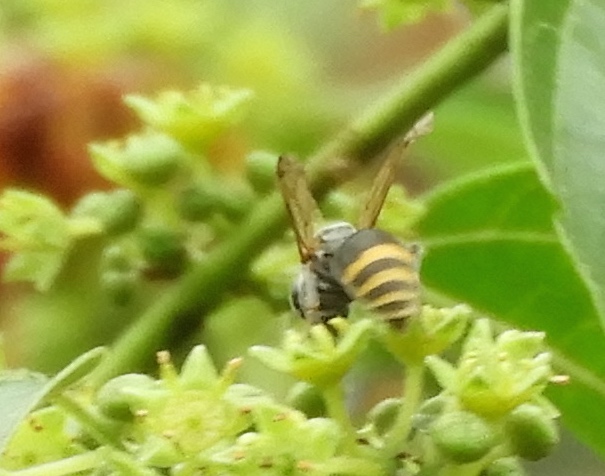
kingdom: Animalia
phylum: Arthropoda
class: Insecta
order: Hymenoptera
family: Vespidae
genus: Brachygastra
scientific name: Brachygastra azteca
